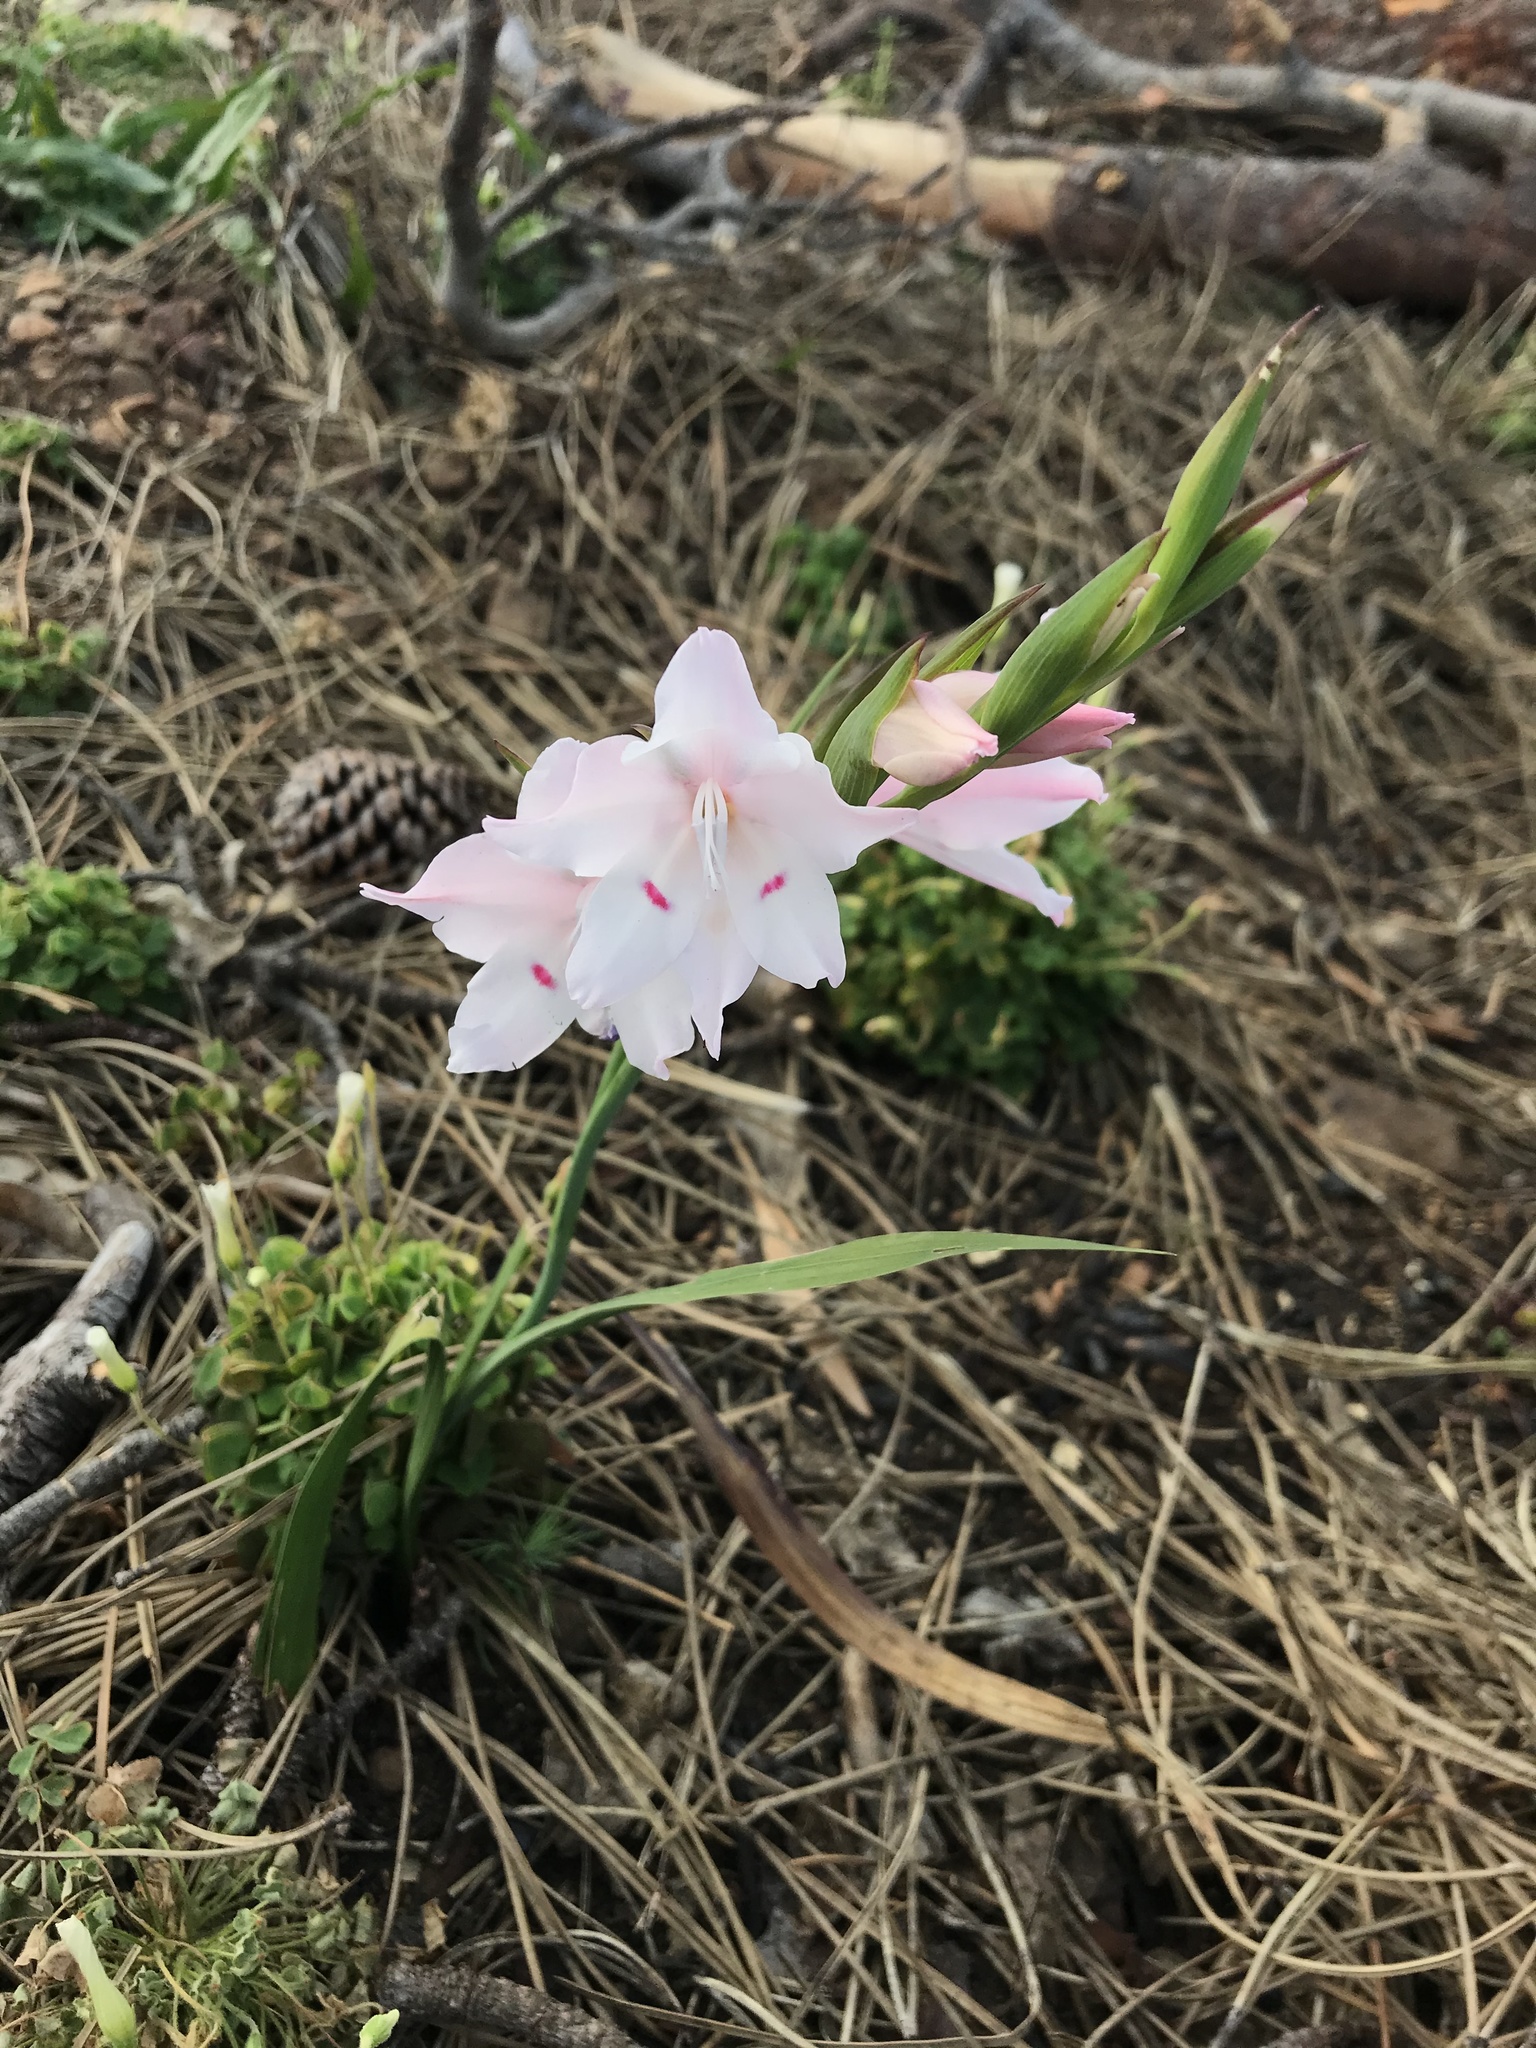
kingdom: Plantae
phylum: Tracheophyta
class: Liliopsida
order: Asparagales
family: Iridaceae
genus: Gladiolus
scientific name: Gladiolus carneus
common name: Painted-lady
